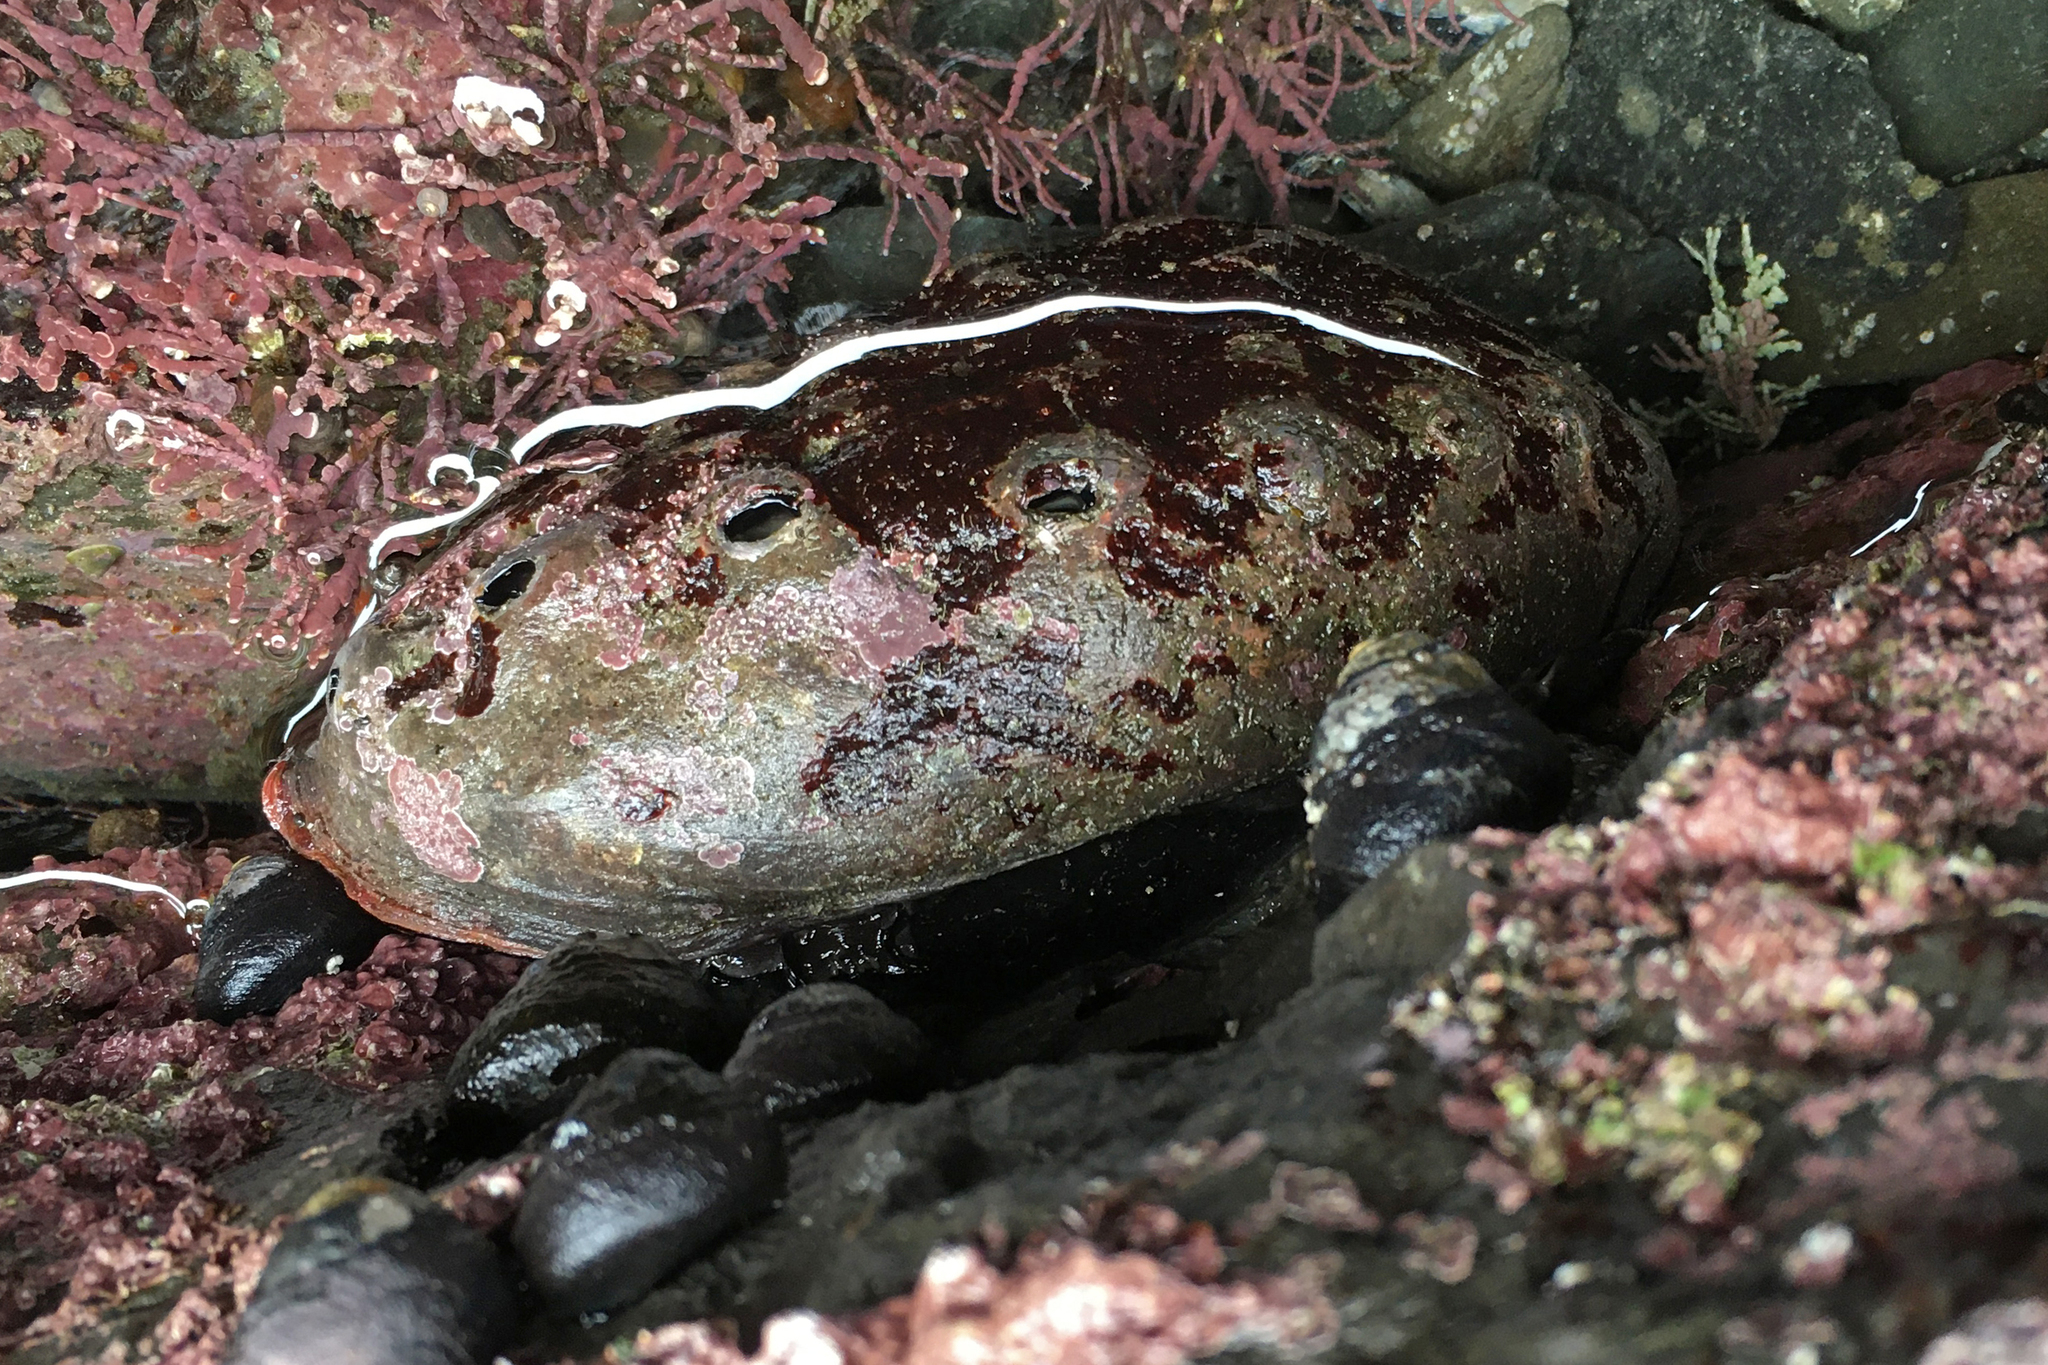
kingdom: Animalia
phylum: Mollusca
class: Gastropoda
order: Lepetellida
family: Haliotidae
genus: Haliotis
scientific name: Haliotis rufescens
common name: Red abalone
